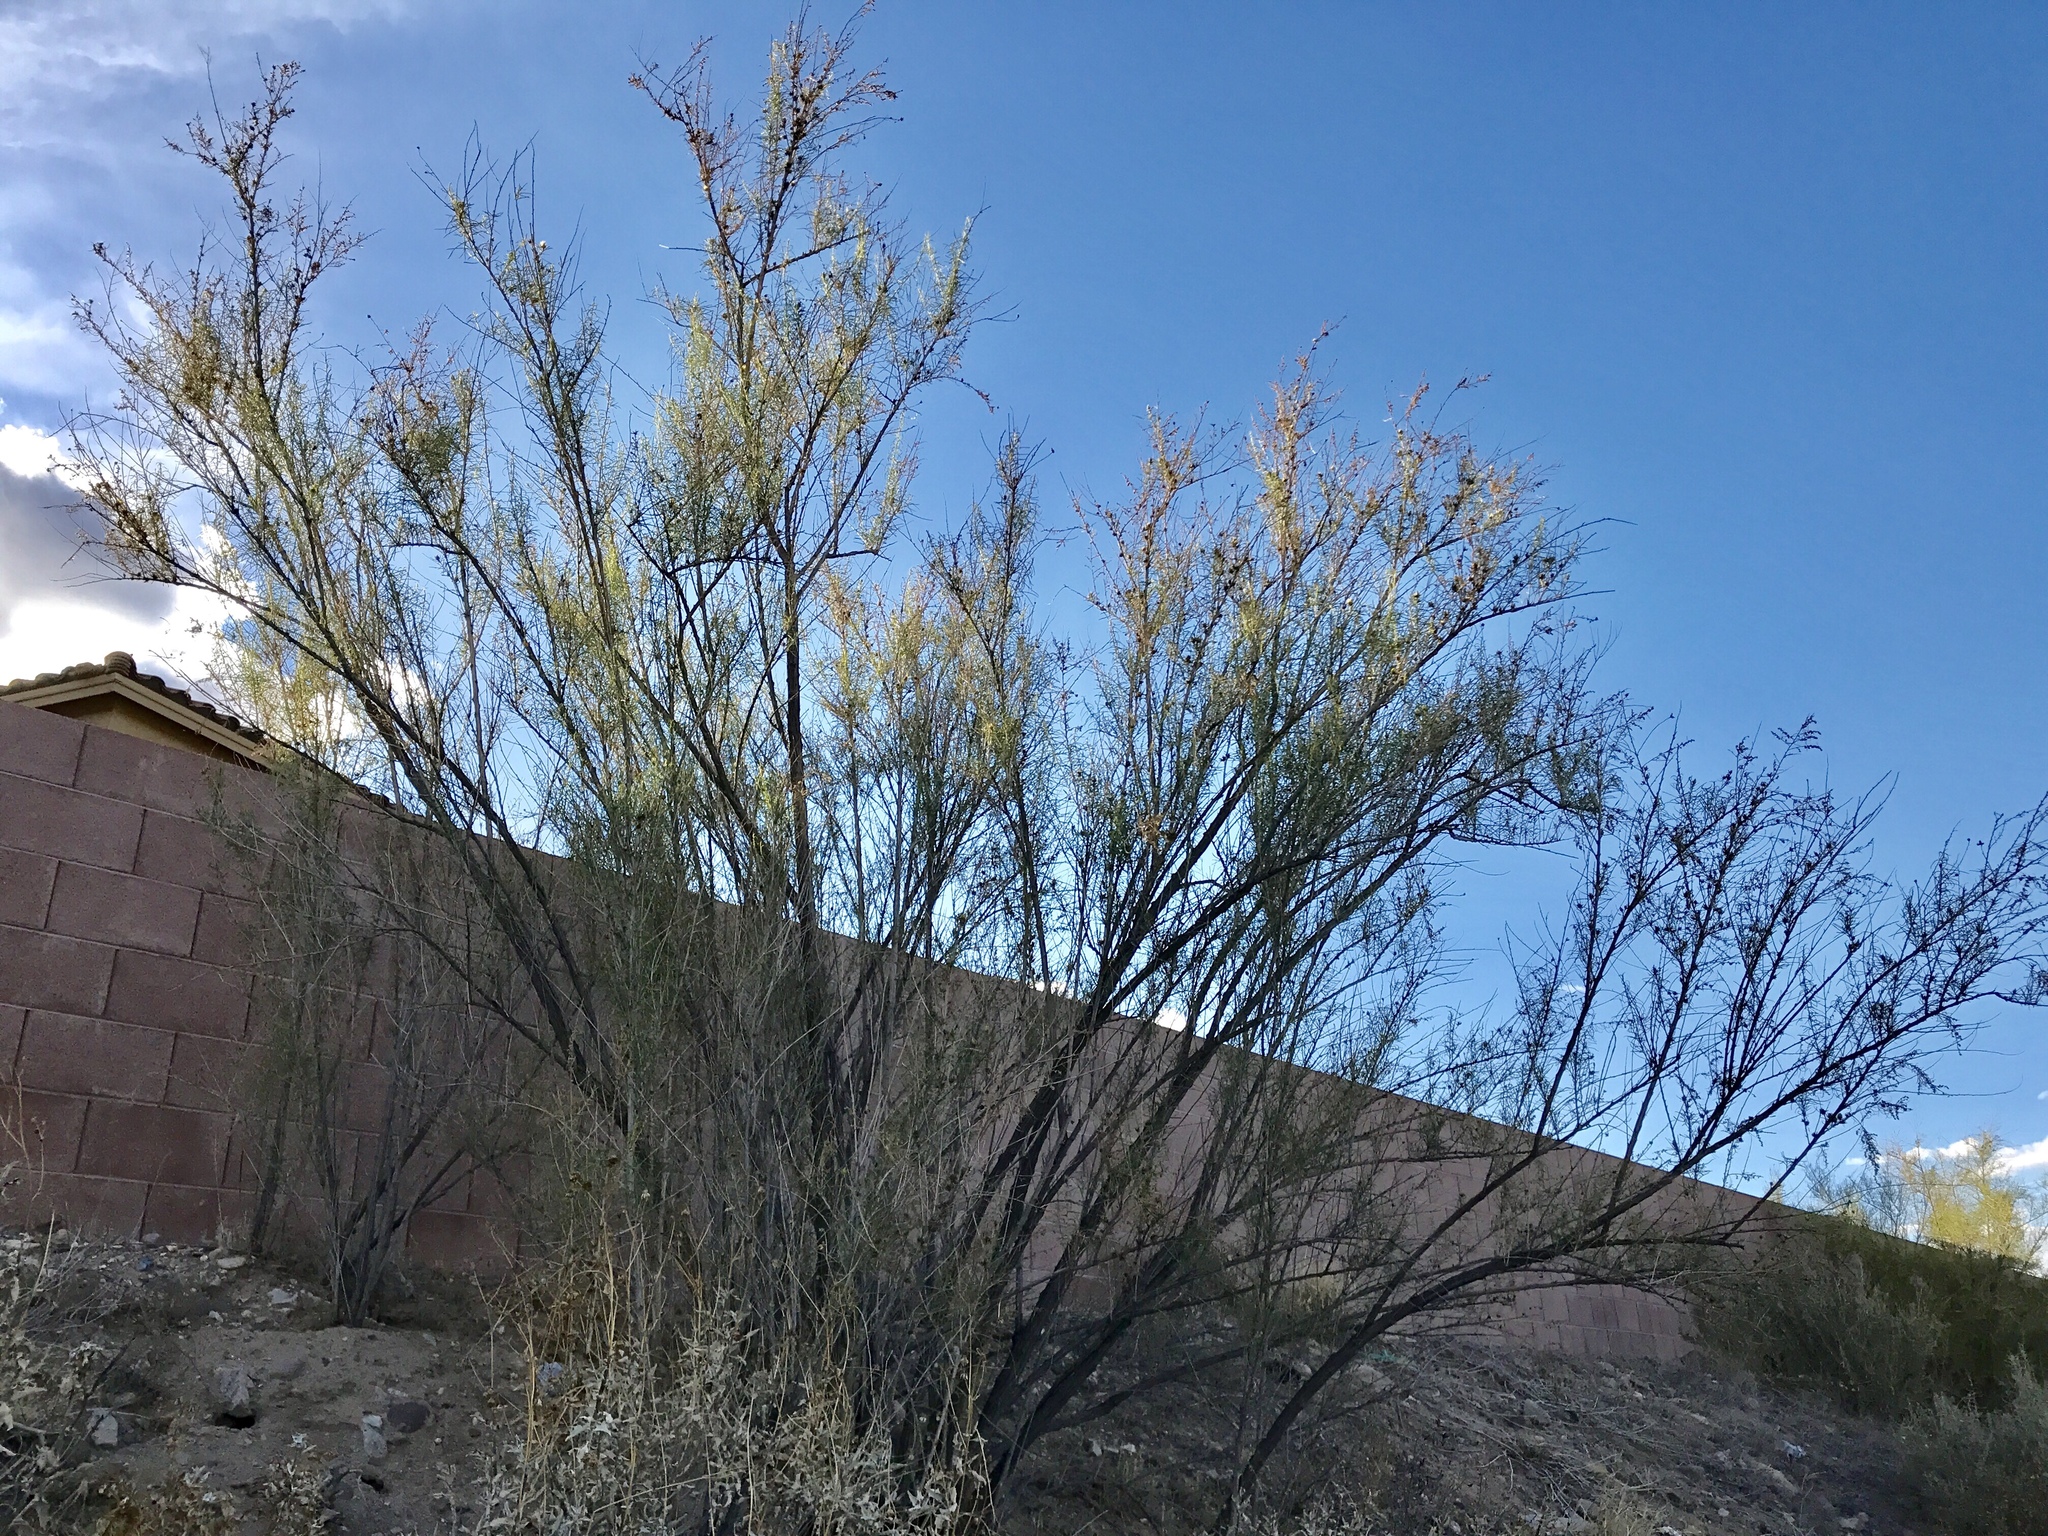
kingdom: Plantae
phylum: Tracheophyta
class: Magnoliopsida
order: Asterales
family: Asteraceae
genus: Ambrosia
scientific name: Ambrosia monogyra
